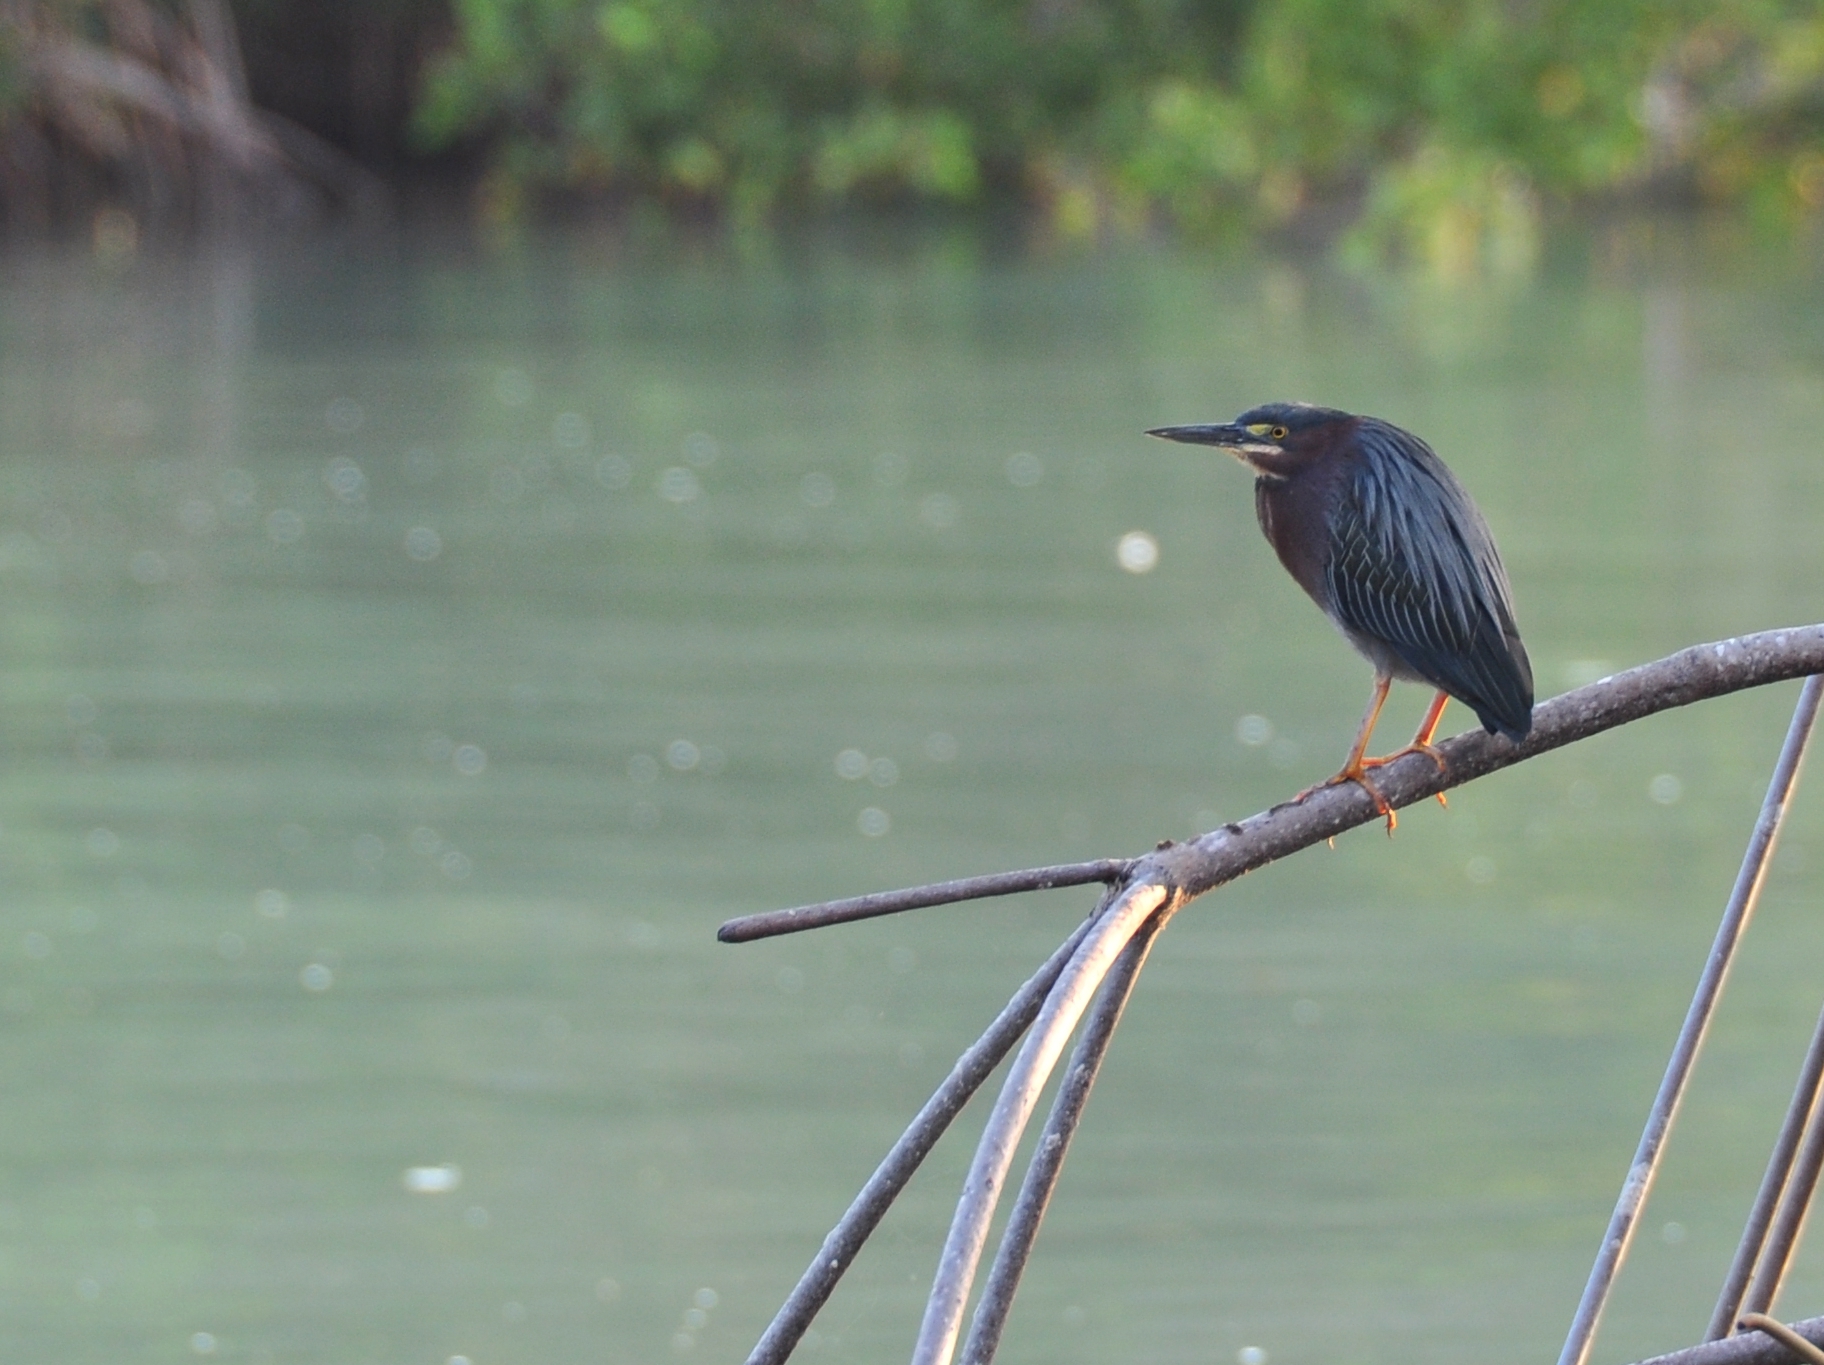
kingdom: Animalia
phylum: Chordata
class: Aves
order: Pelecaniformes
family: Ardeidae
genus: Butorides
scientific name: Butorides virescens
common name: Green heron
